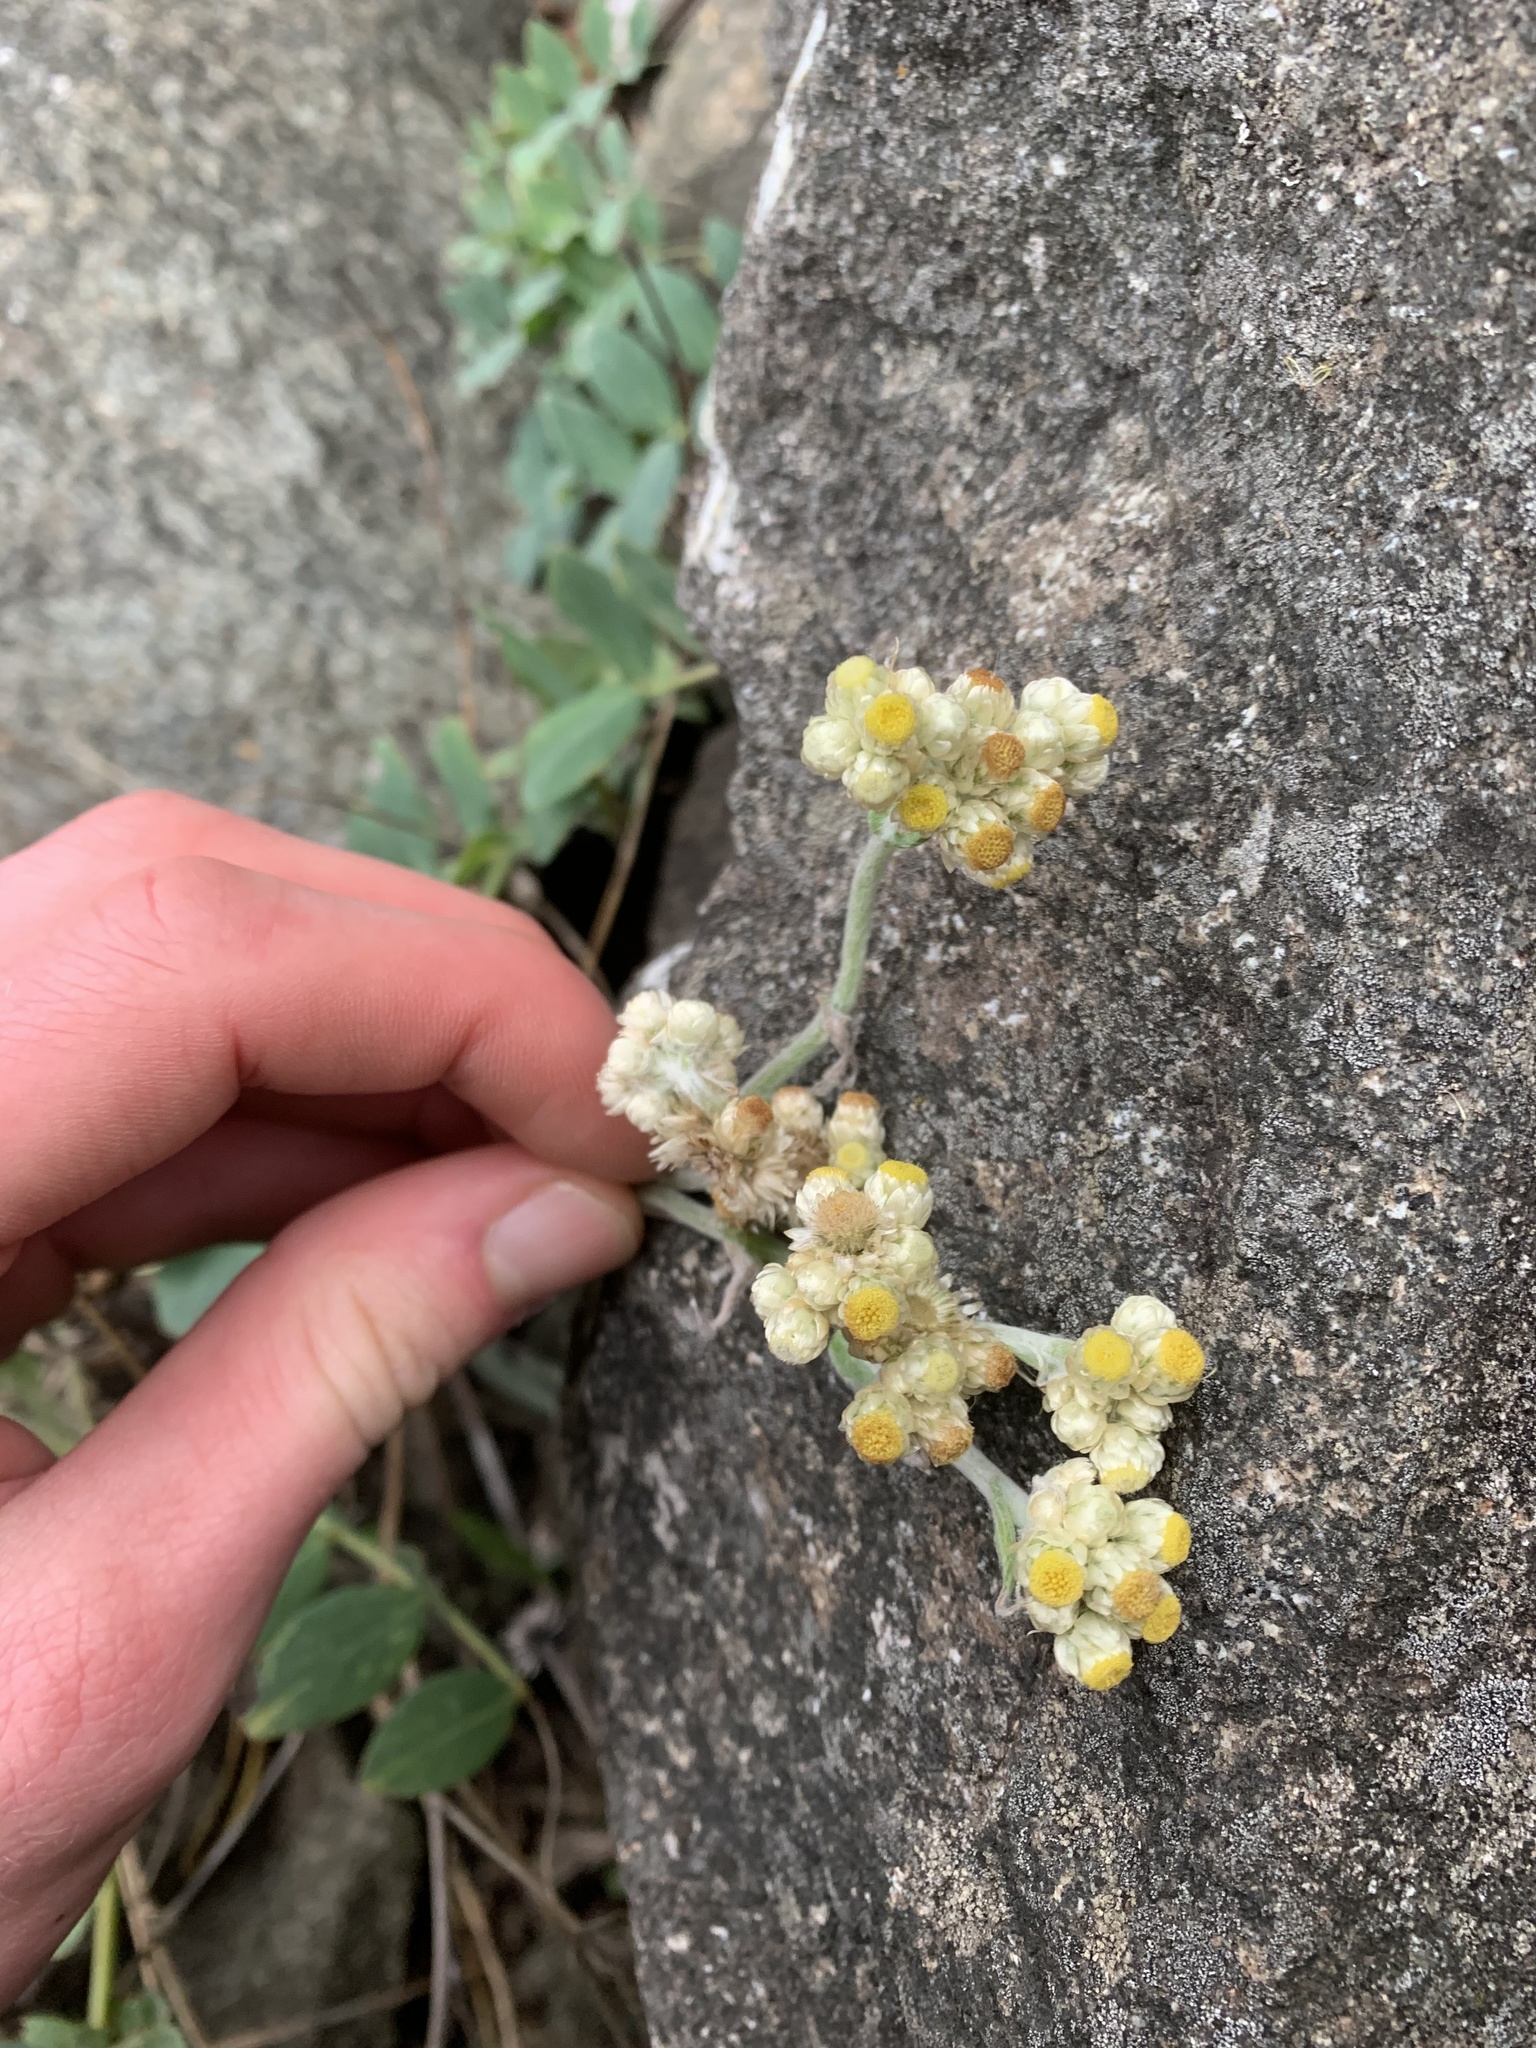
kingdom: Plantae
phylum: Tracheophyta
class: Magnoliopsida
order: Asterales
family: Asteraceae
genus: Pseudognaphalium
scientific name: Pseudognaphalium stramineum
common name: Cotton-batting-plant
